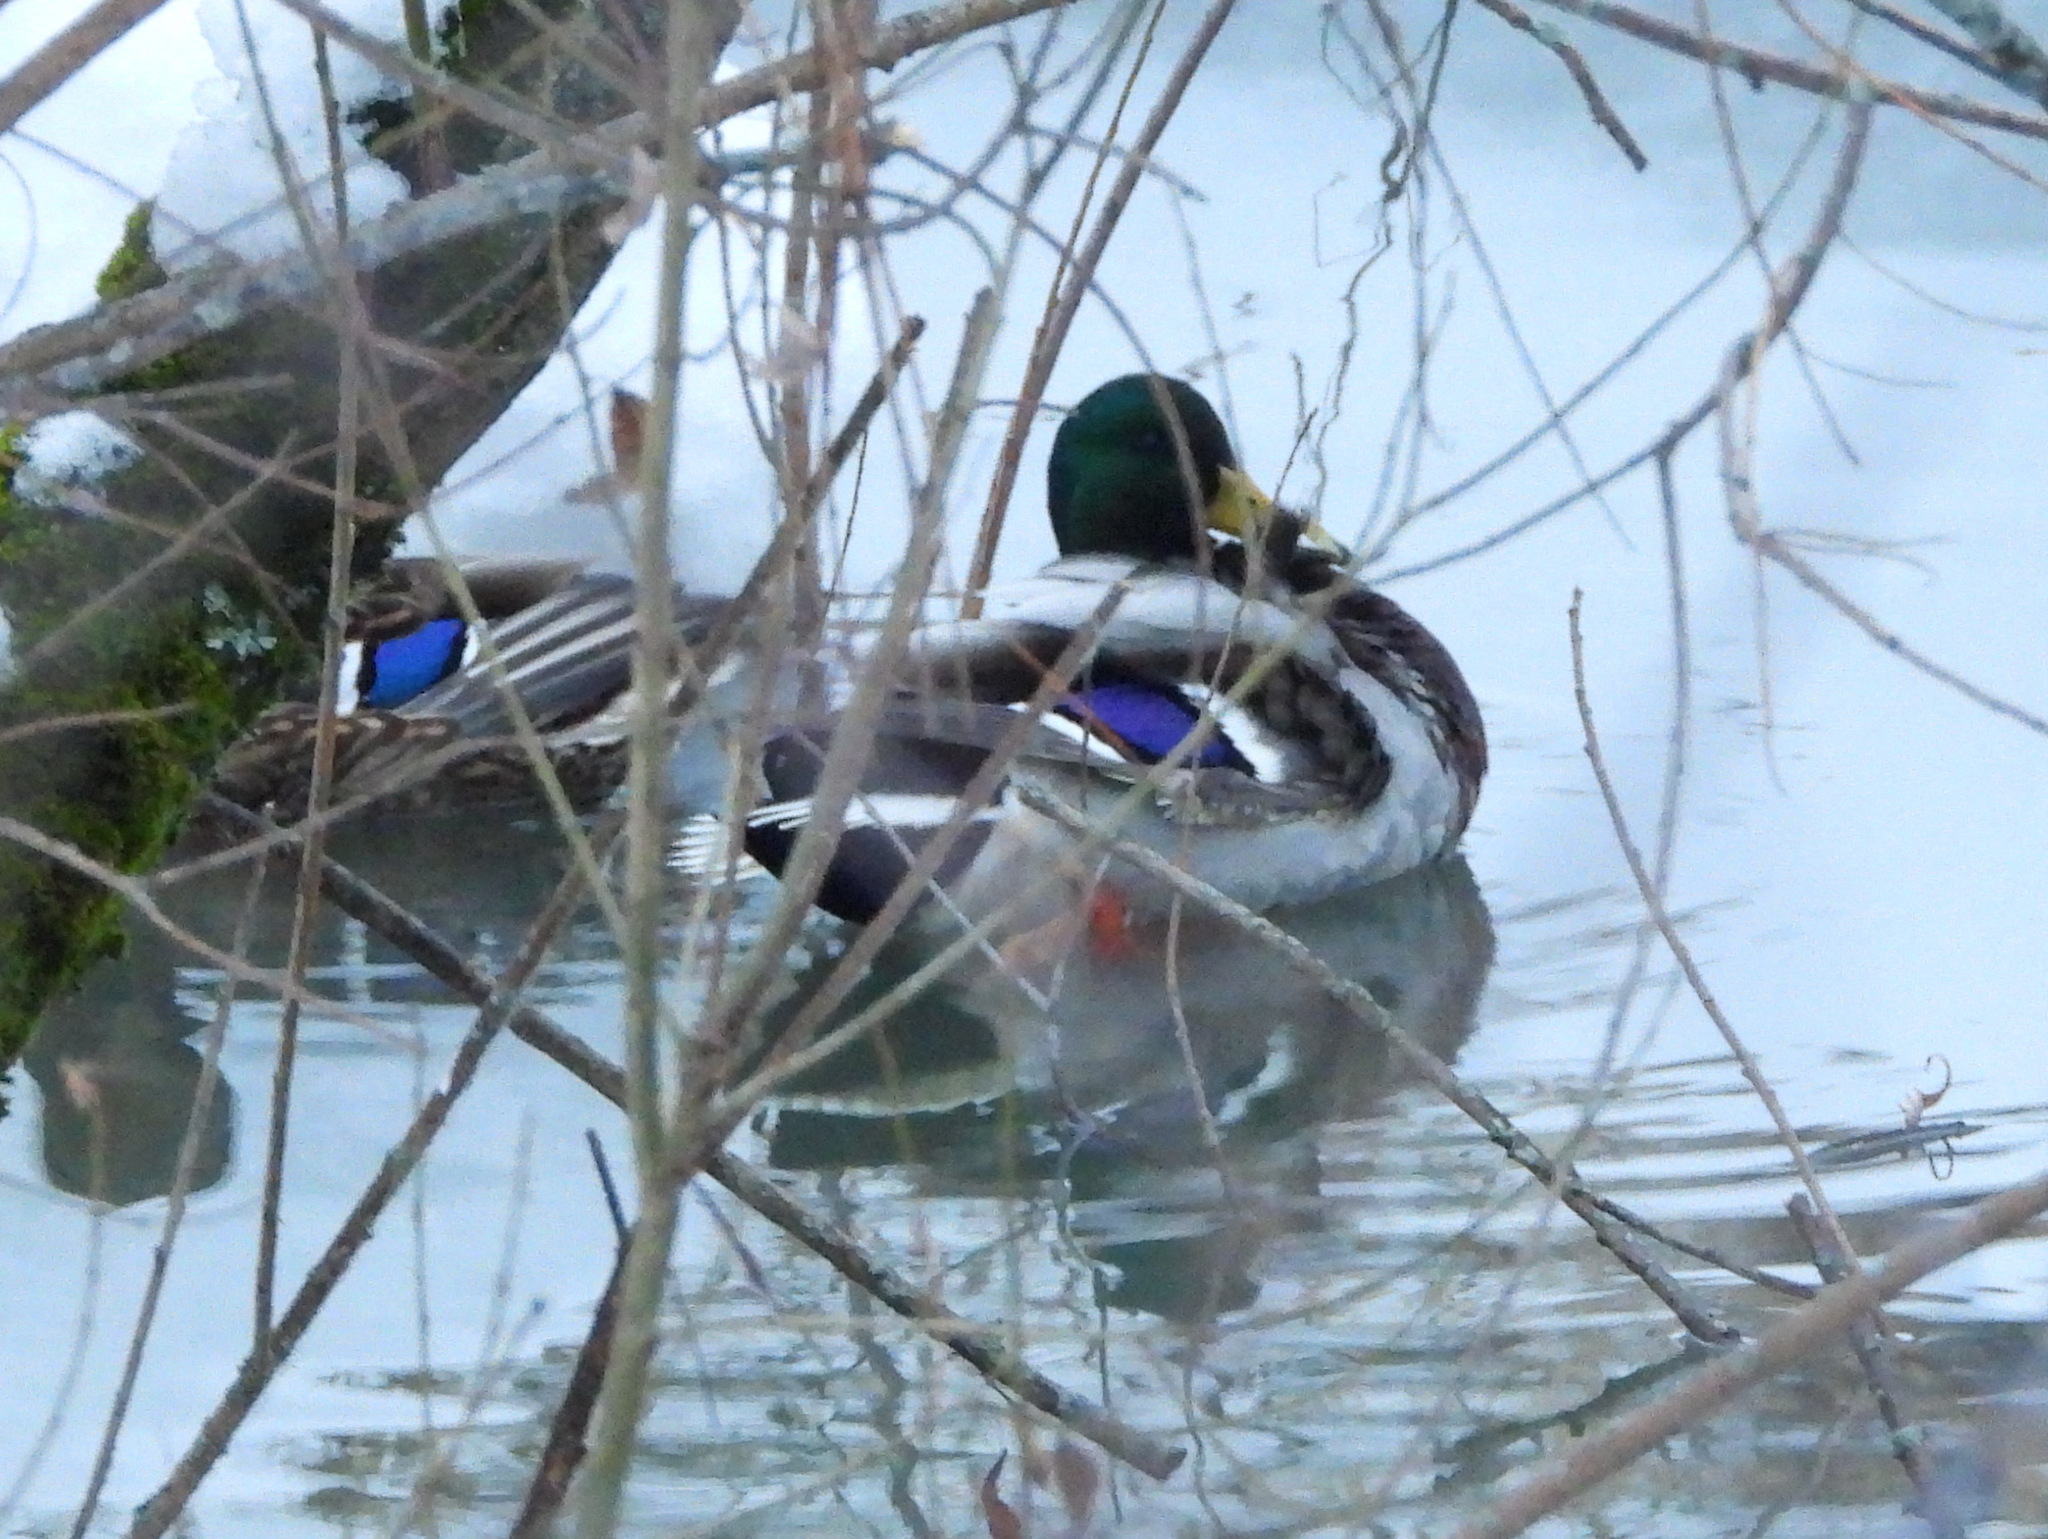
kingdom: Animalia
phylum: Chordata
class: Aves
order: Anseriformes
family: Anatidae
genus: Anas
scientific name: Anas platyrhynchos
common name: Mallard
